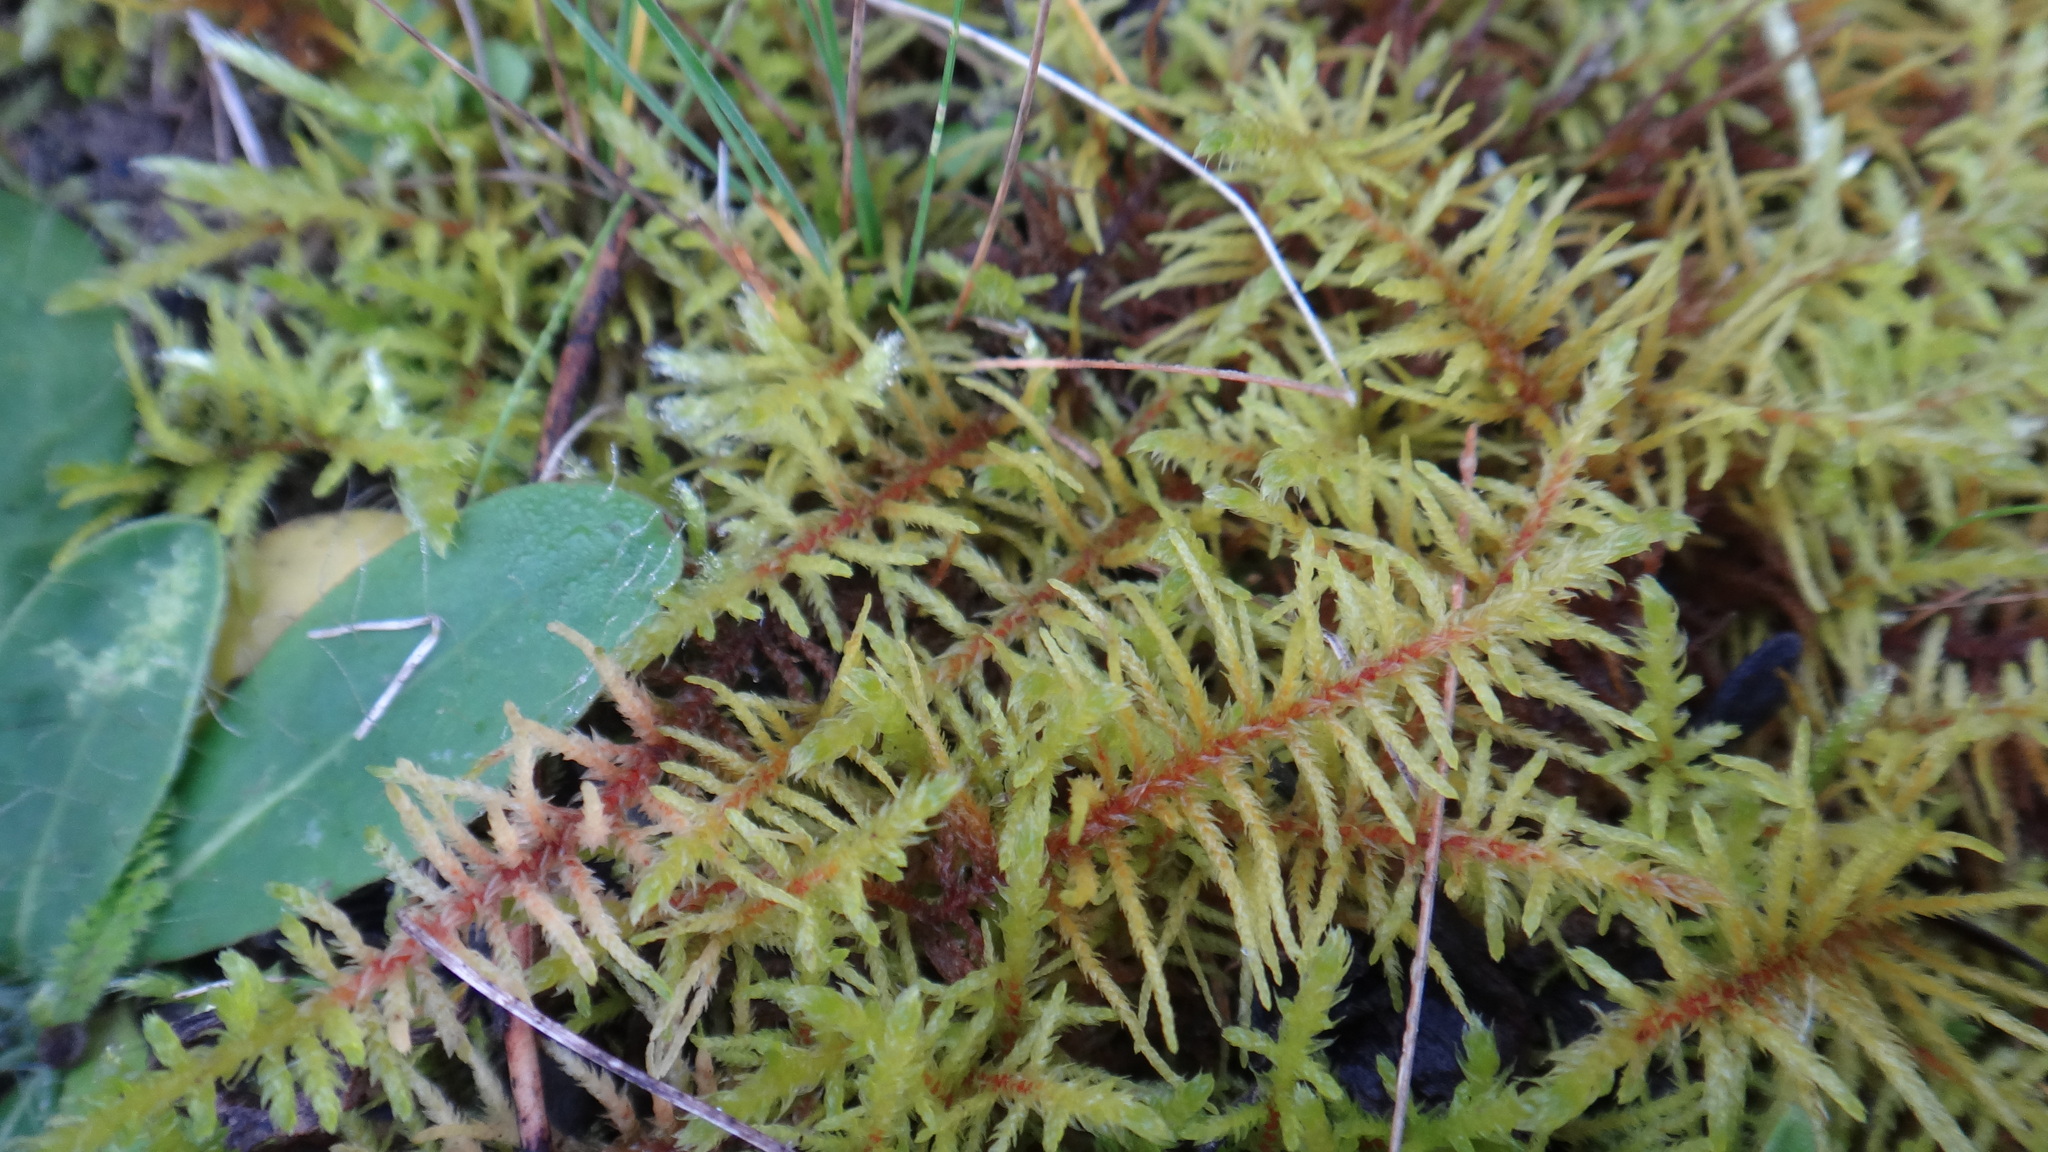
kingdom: Plantae
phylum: Bryophyta
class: Bryopsida
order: Hypnales
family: Thuidiaceae
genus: Abietinella
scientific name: Abietinella abietina
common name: Wiry fern moss
